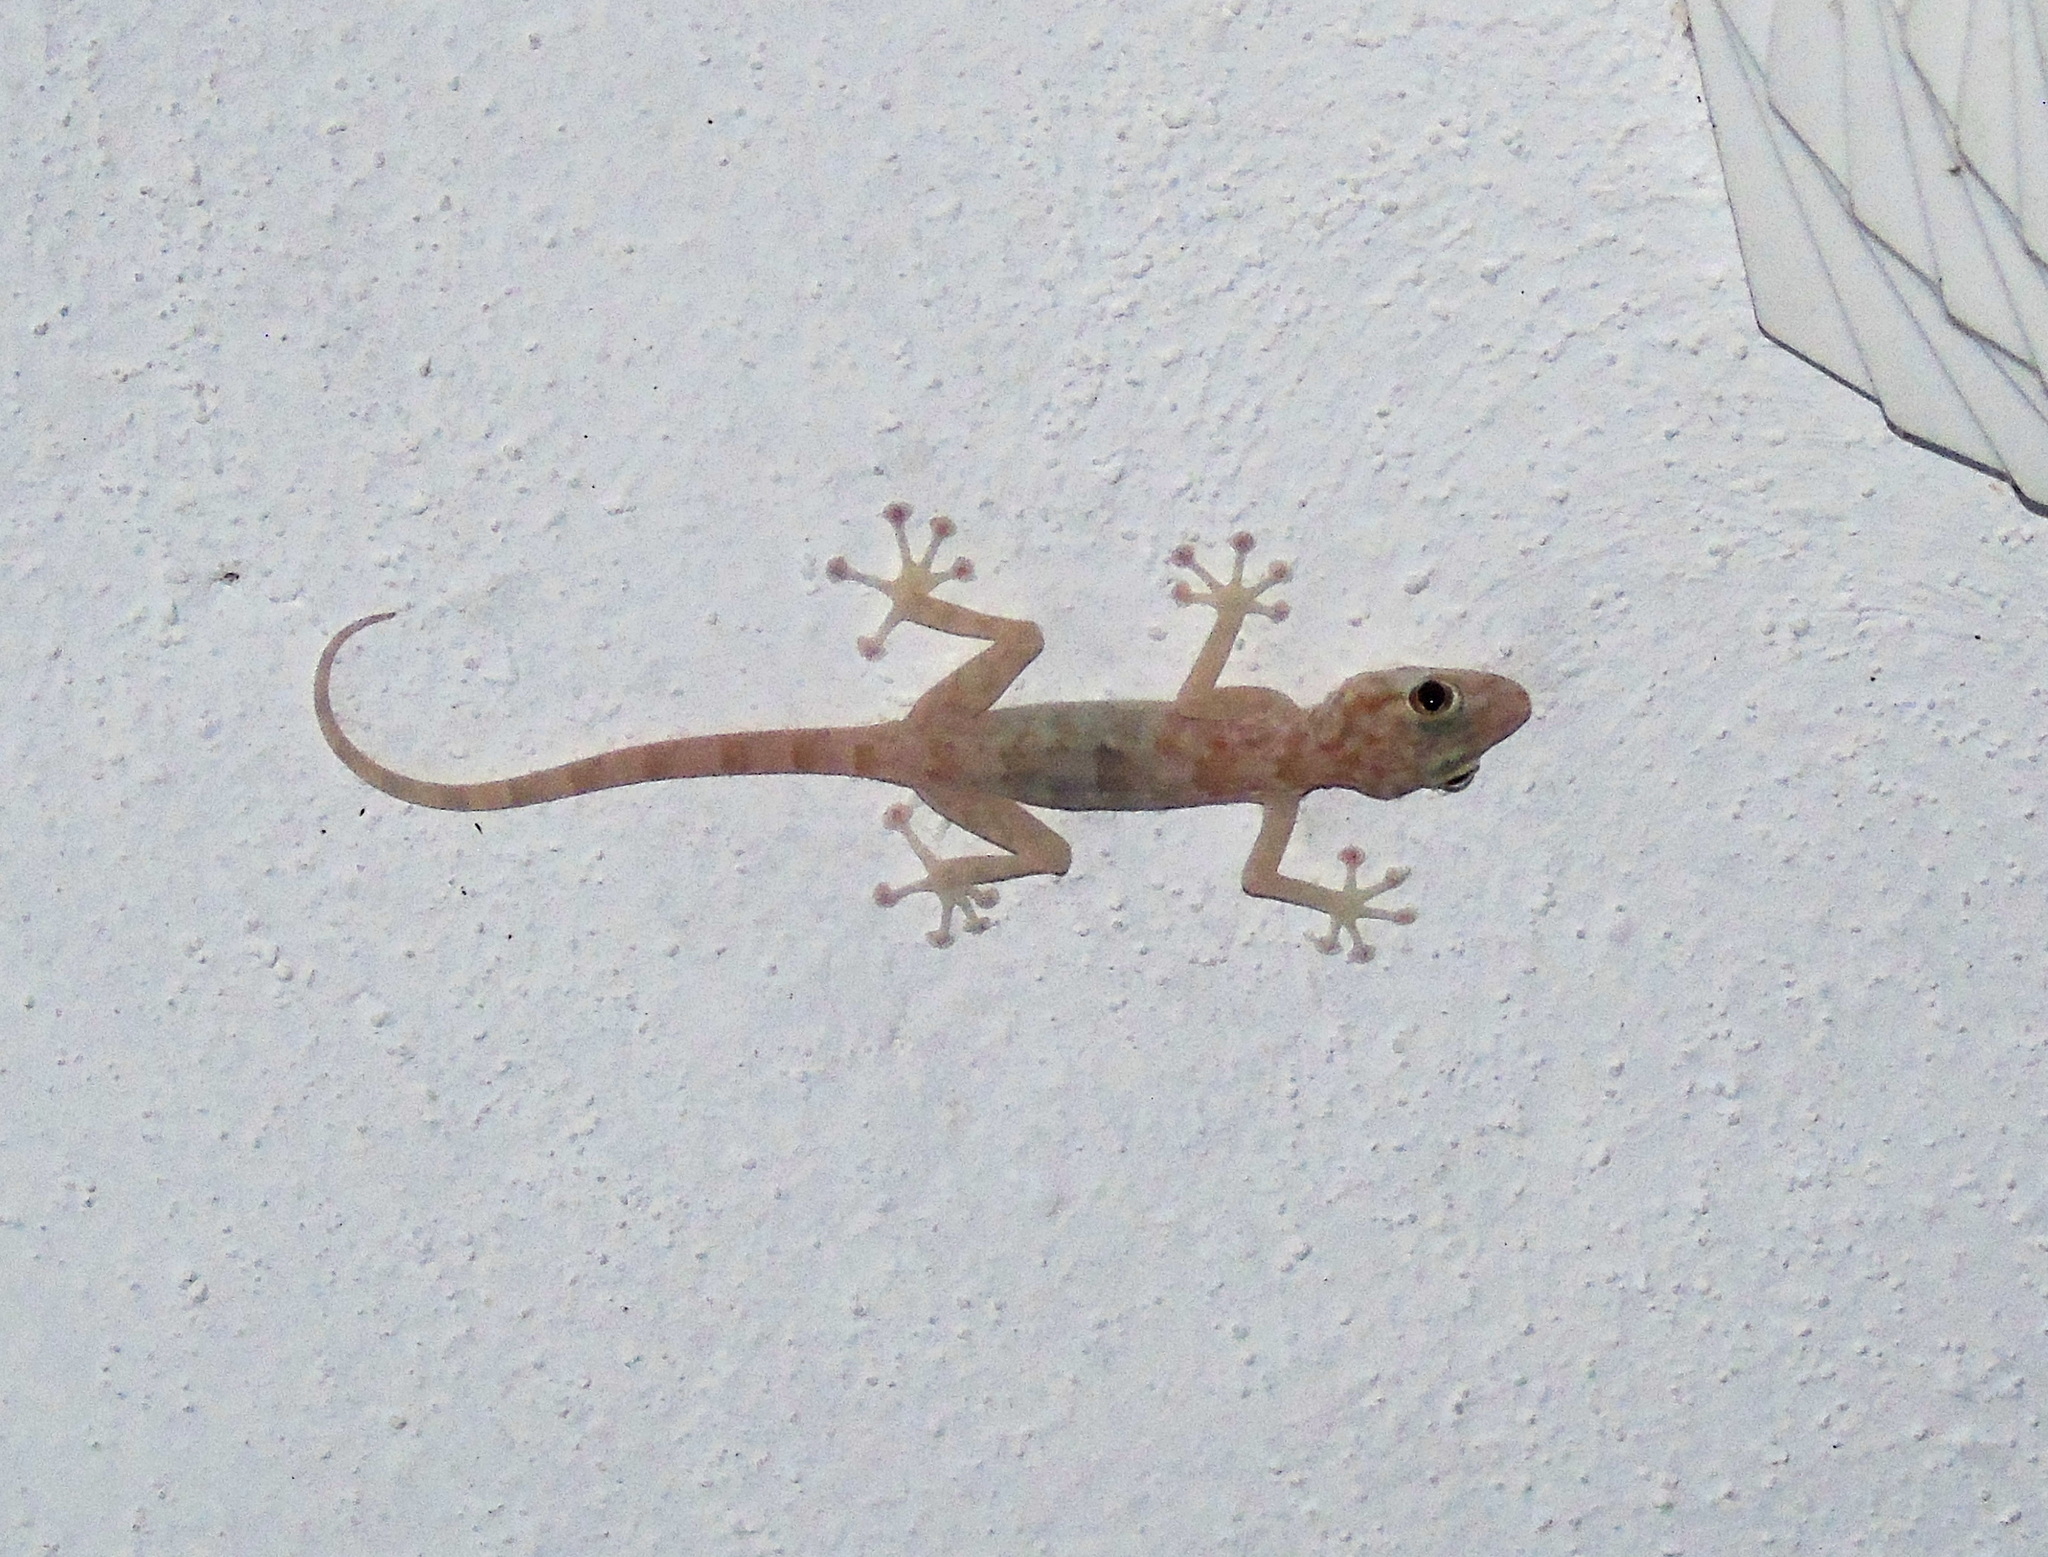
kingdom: Animalia
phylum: Chordata
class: Squamata
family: Phyllodactylidae
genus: Ptyodactylus
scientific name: Ptyodactylus hasselquistii
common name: Hasselquist’s fan-footed gecko
